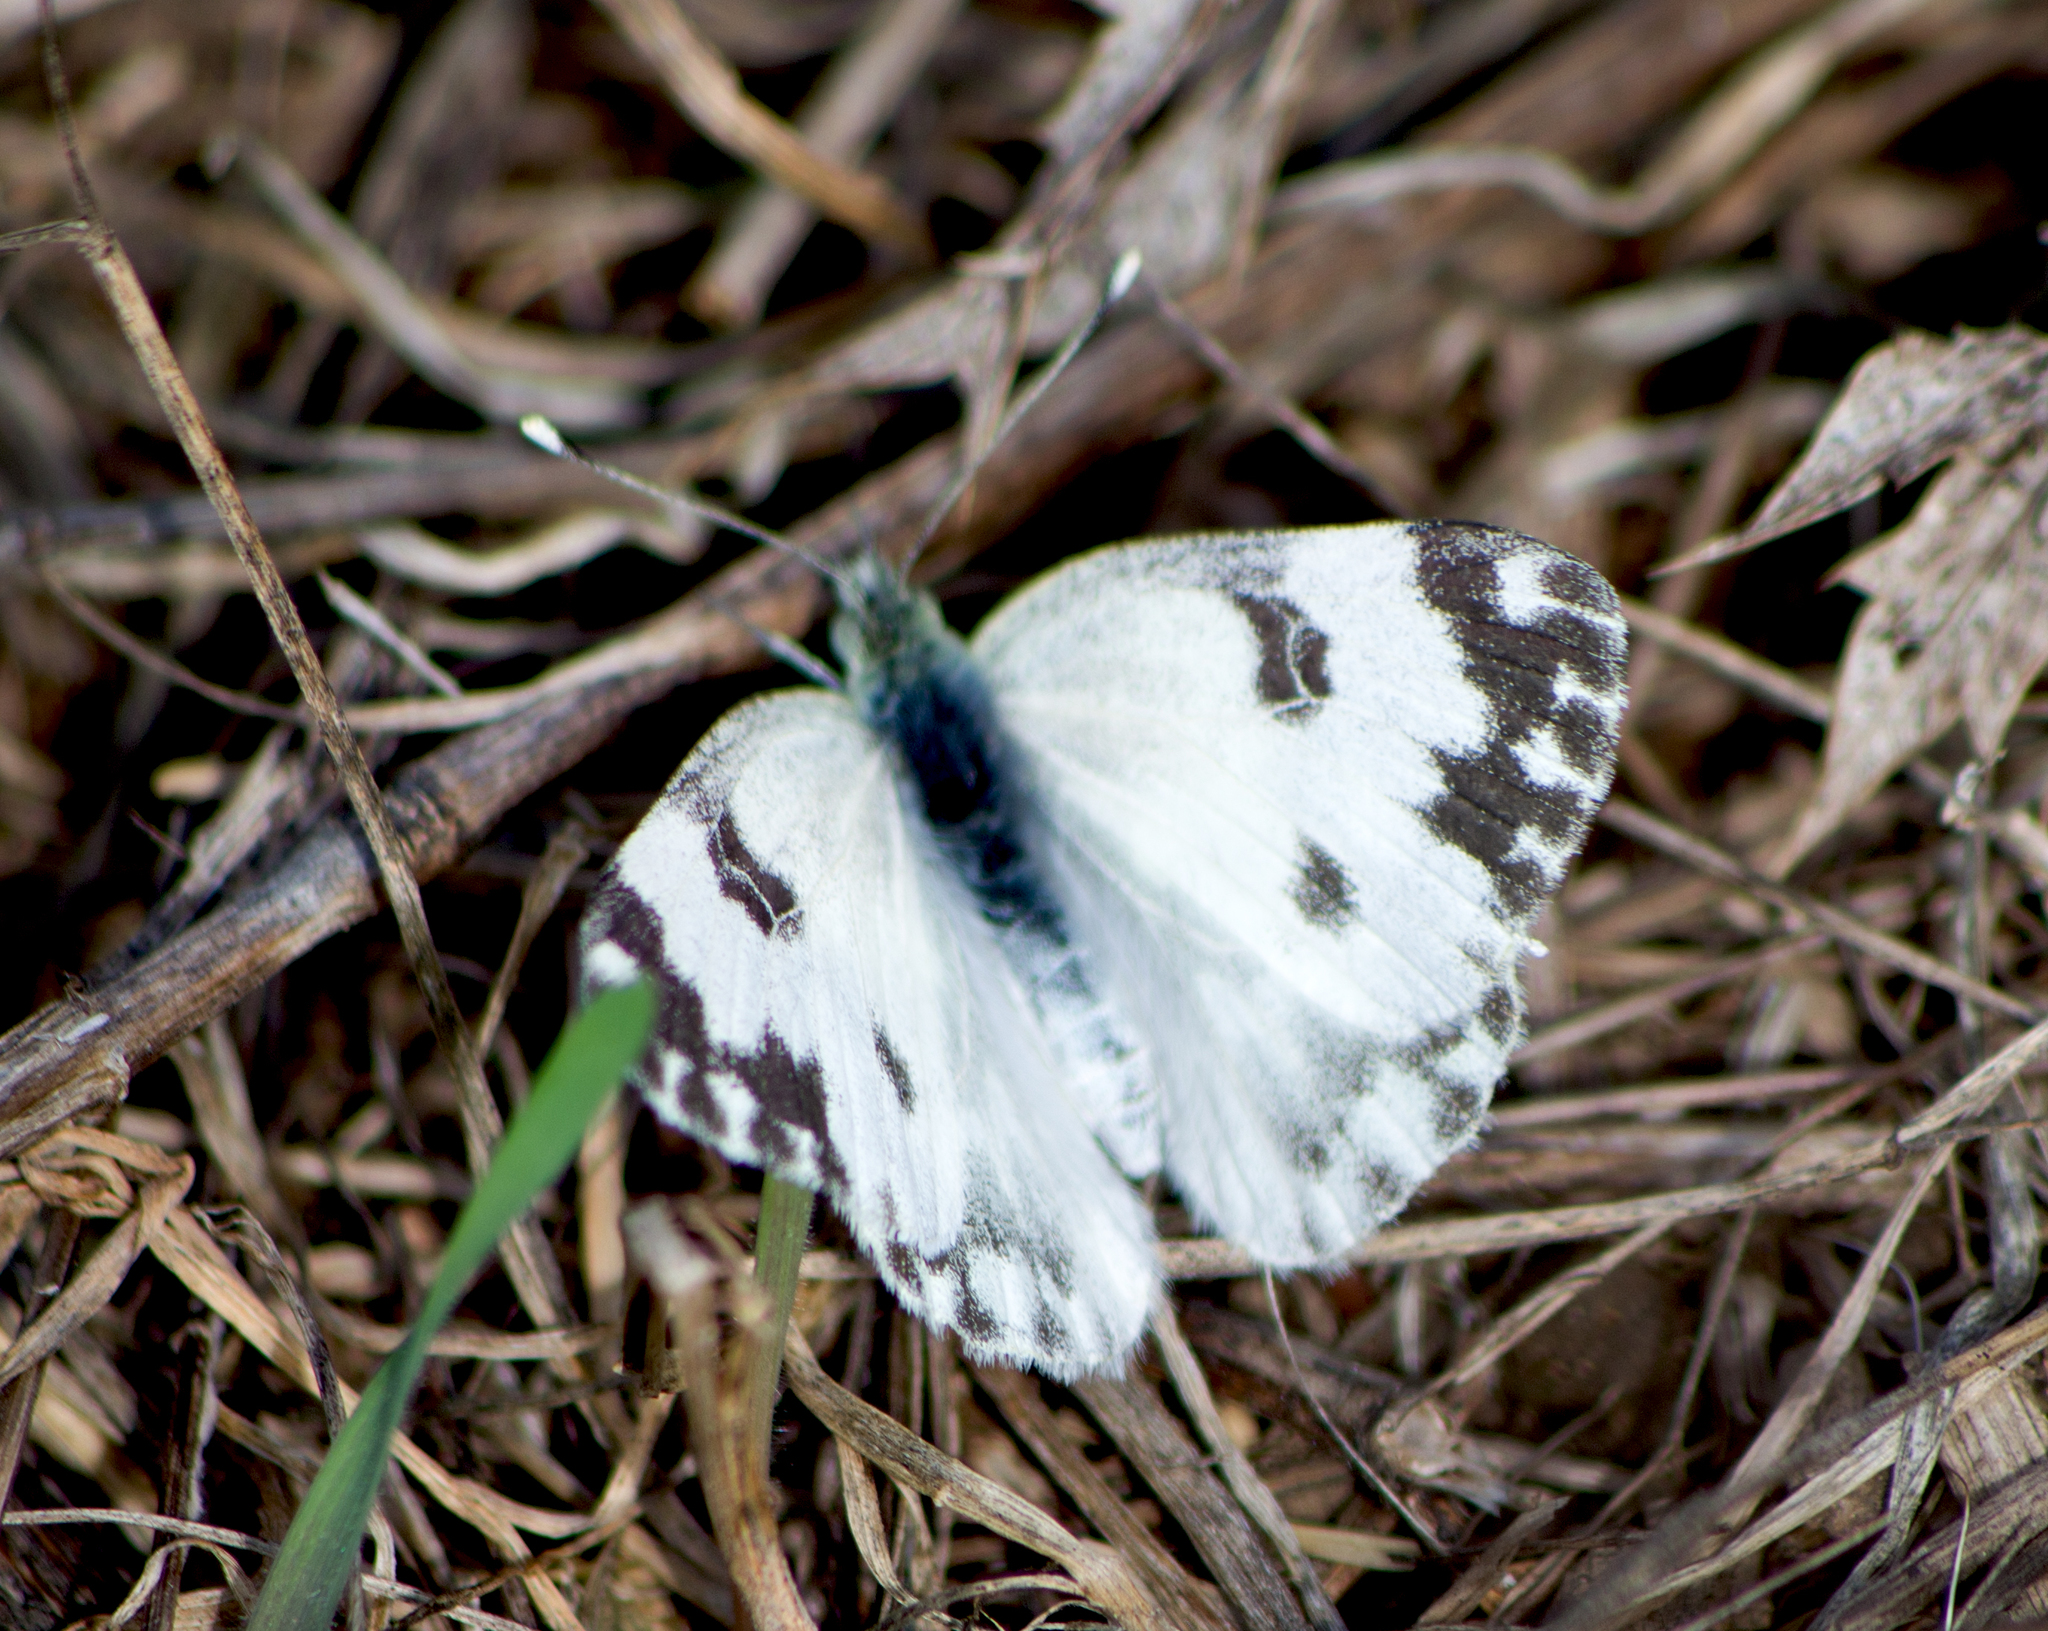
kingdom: Animalia
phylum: Arthropoda
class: Insecta
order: Lepidoptera
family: Pieridae
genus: Pontia
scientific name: Pontia edusa
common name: Eastern bath white
